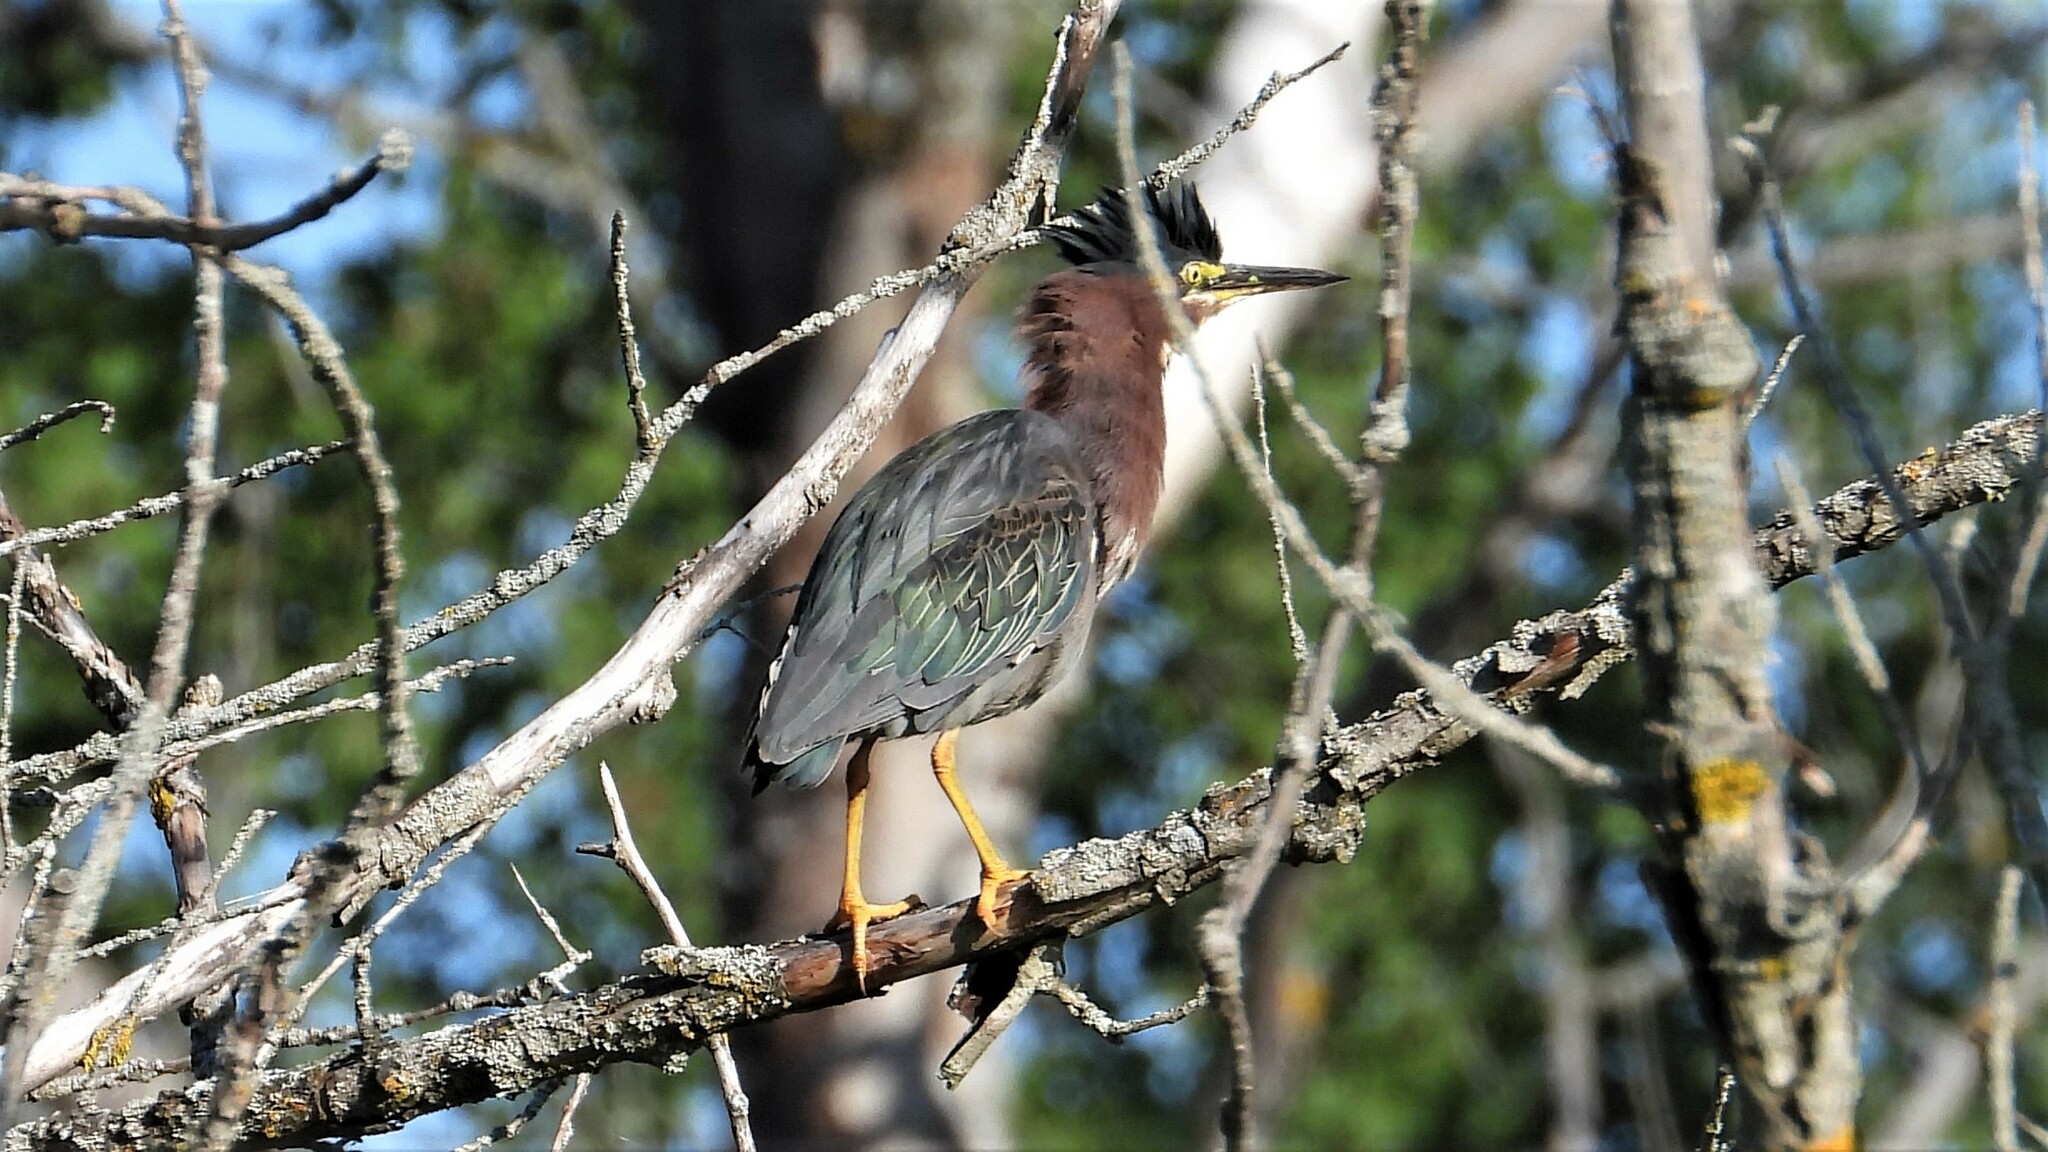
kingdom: Animalia
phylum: Chordata
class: Aves
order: Pelecaniformes
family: Ardeidae
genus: Butorides
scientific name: Butorides virescens
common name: Green heron
